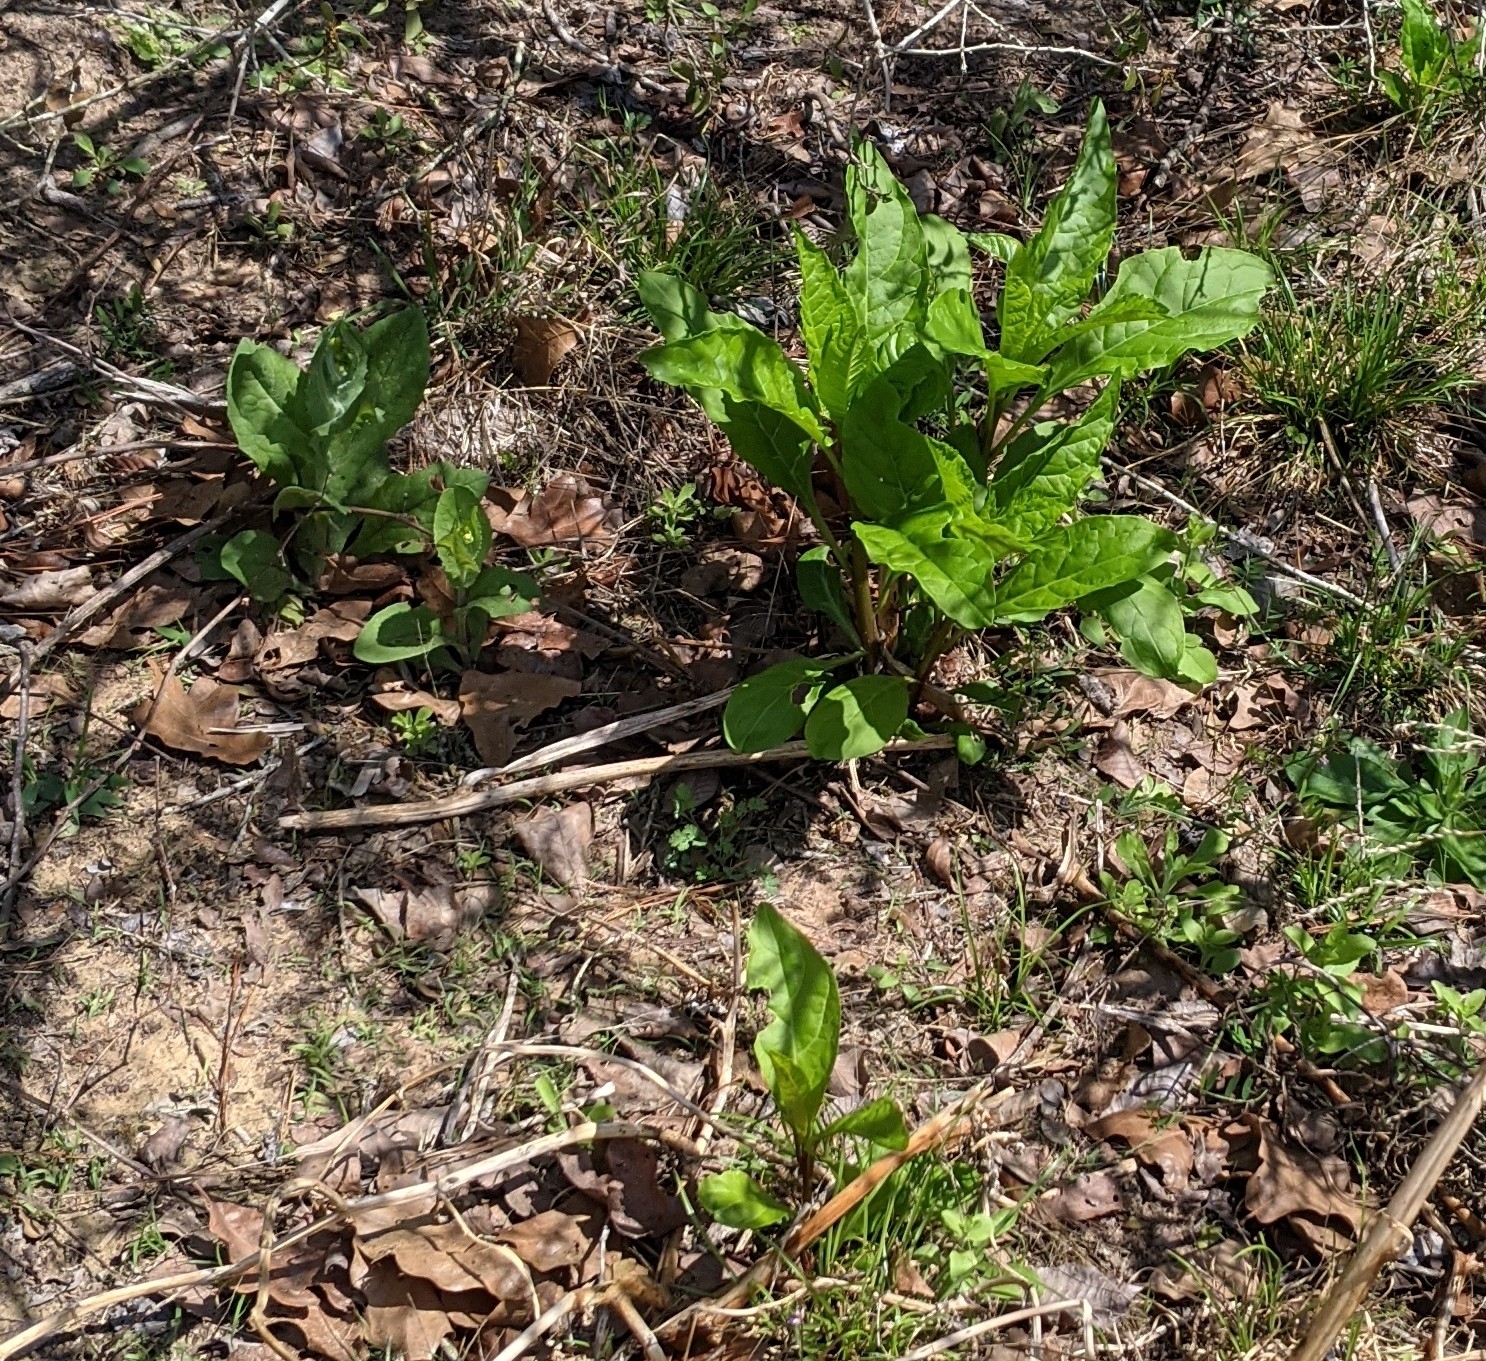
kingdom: Plantae
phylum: Tracheophyta
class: Magnoliopsida
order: Caryophyllales
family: Phytolaccaceae
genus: Phytolacca
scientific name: Phytolacca americana
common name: American pokeweed
